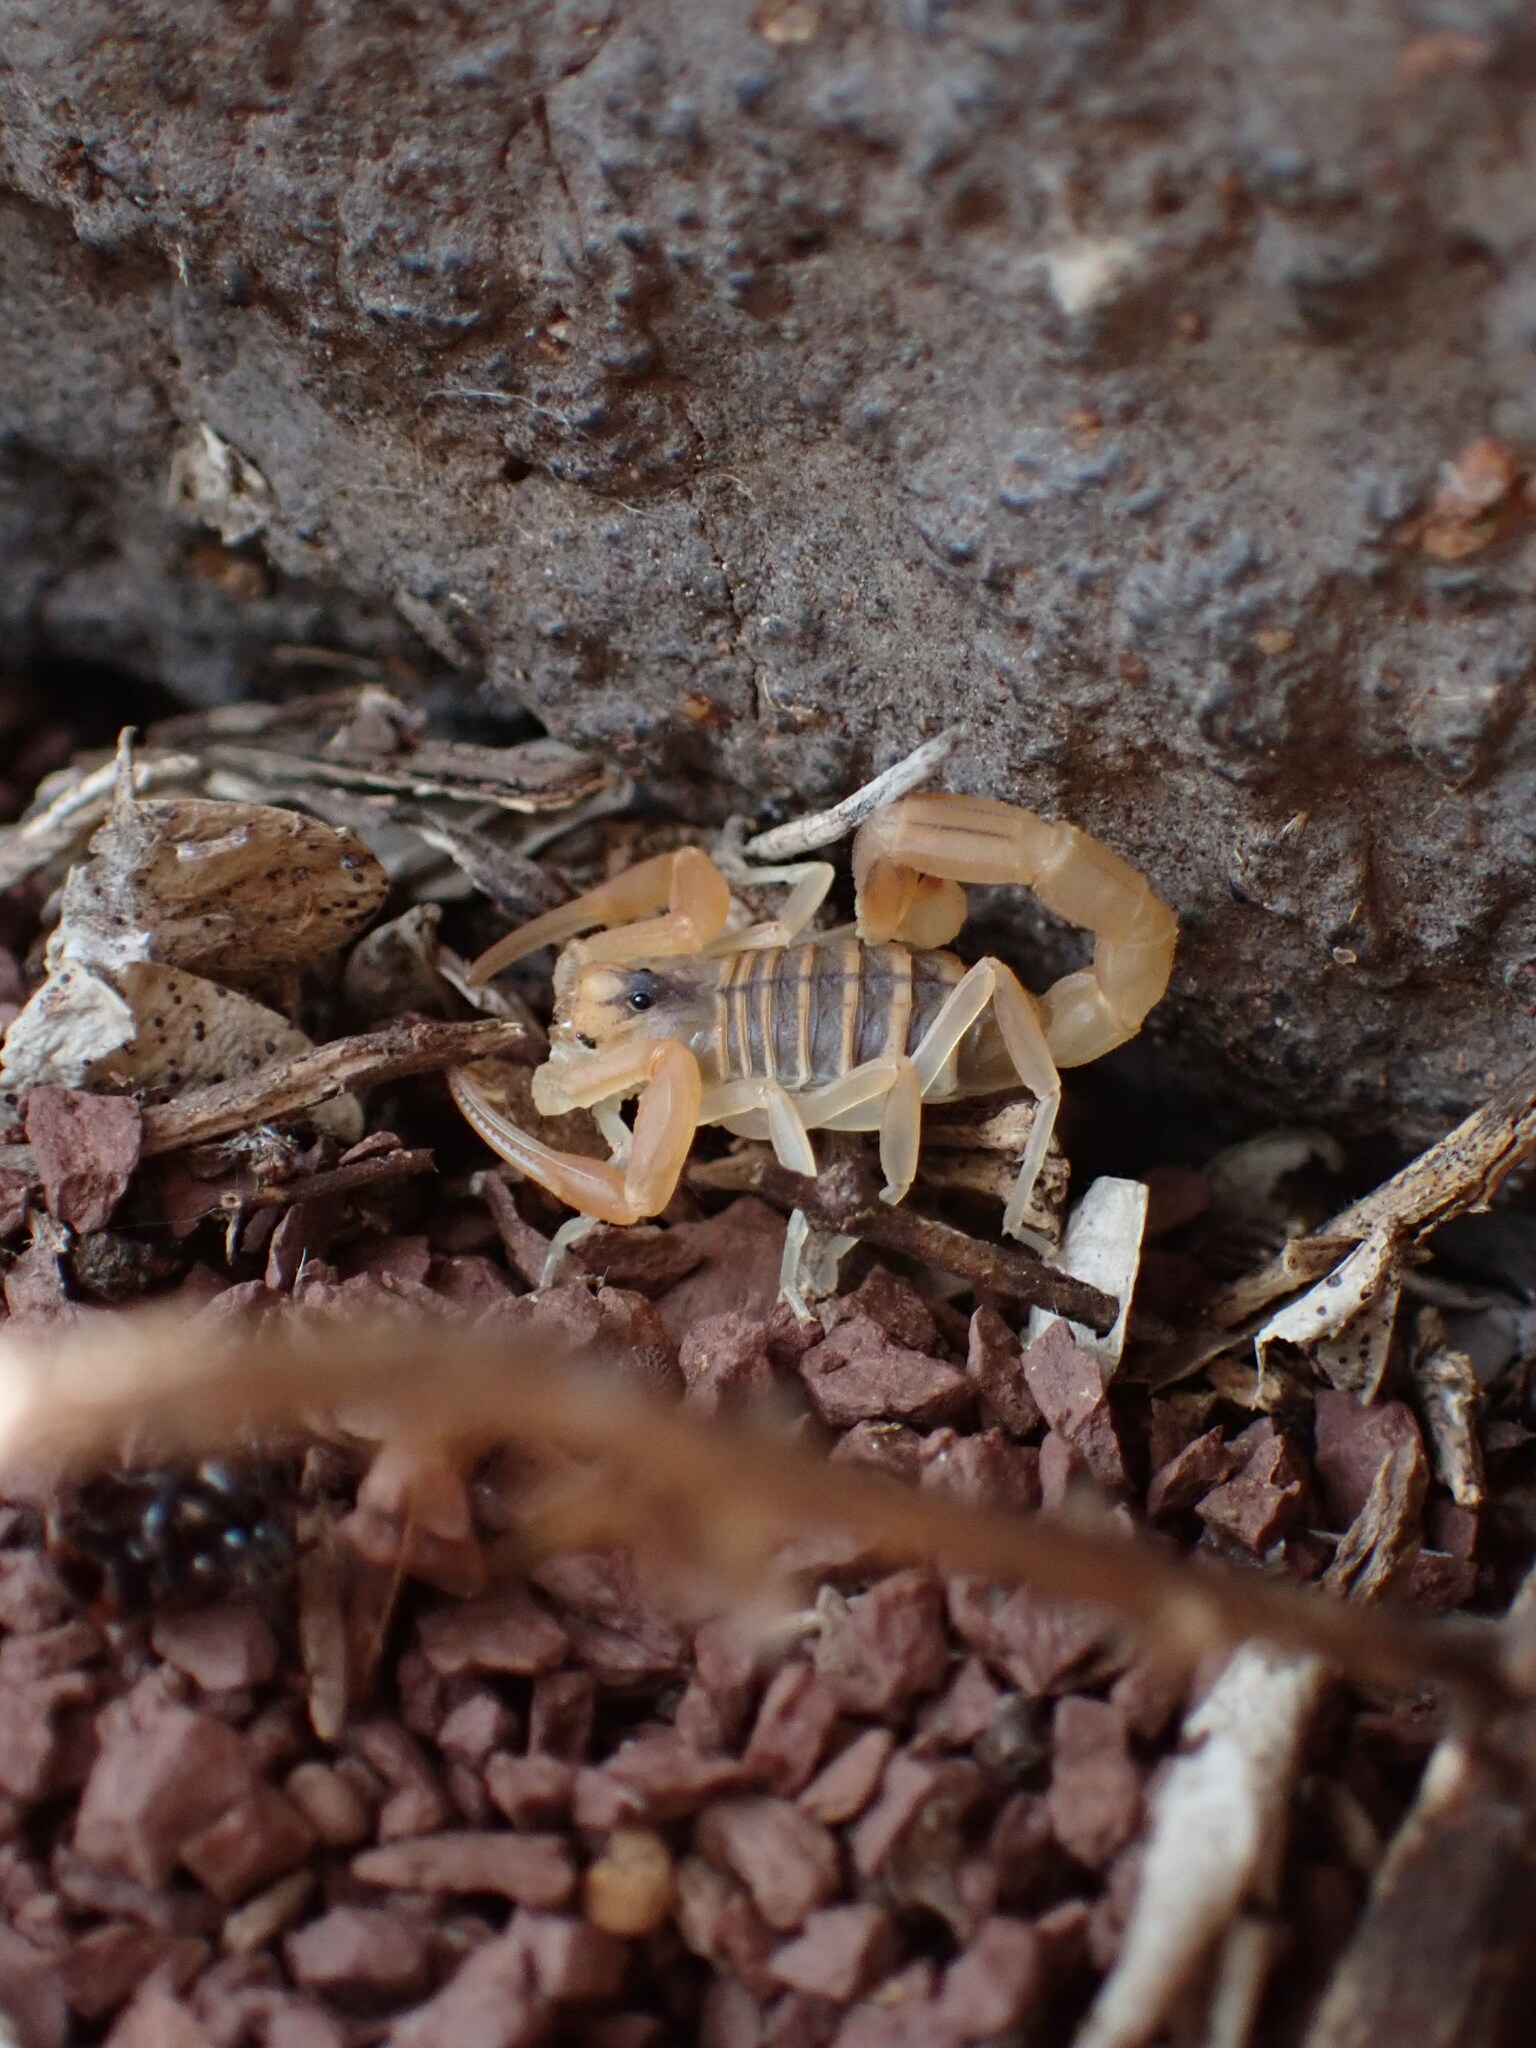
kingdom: Animalia
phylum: Arthropoda
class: Arachnida
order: Scorpiones
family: Buthidae
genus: Buthus
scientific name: Buthus occitanus
